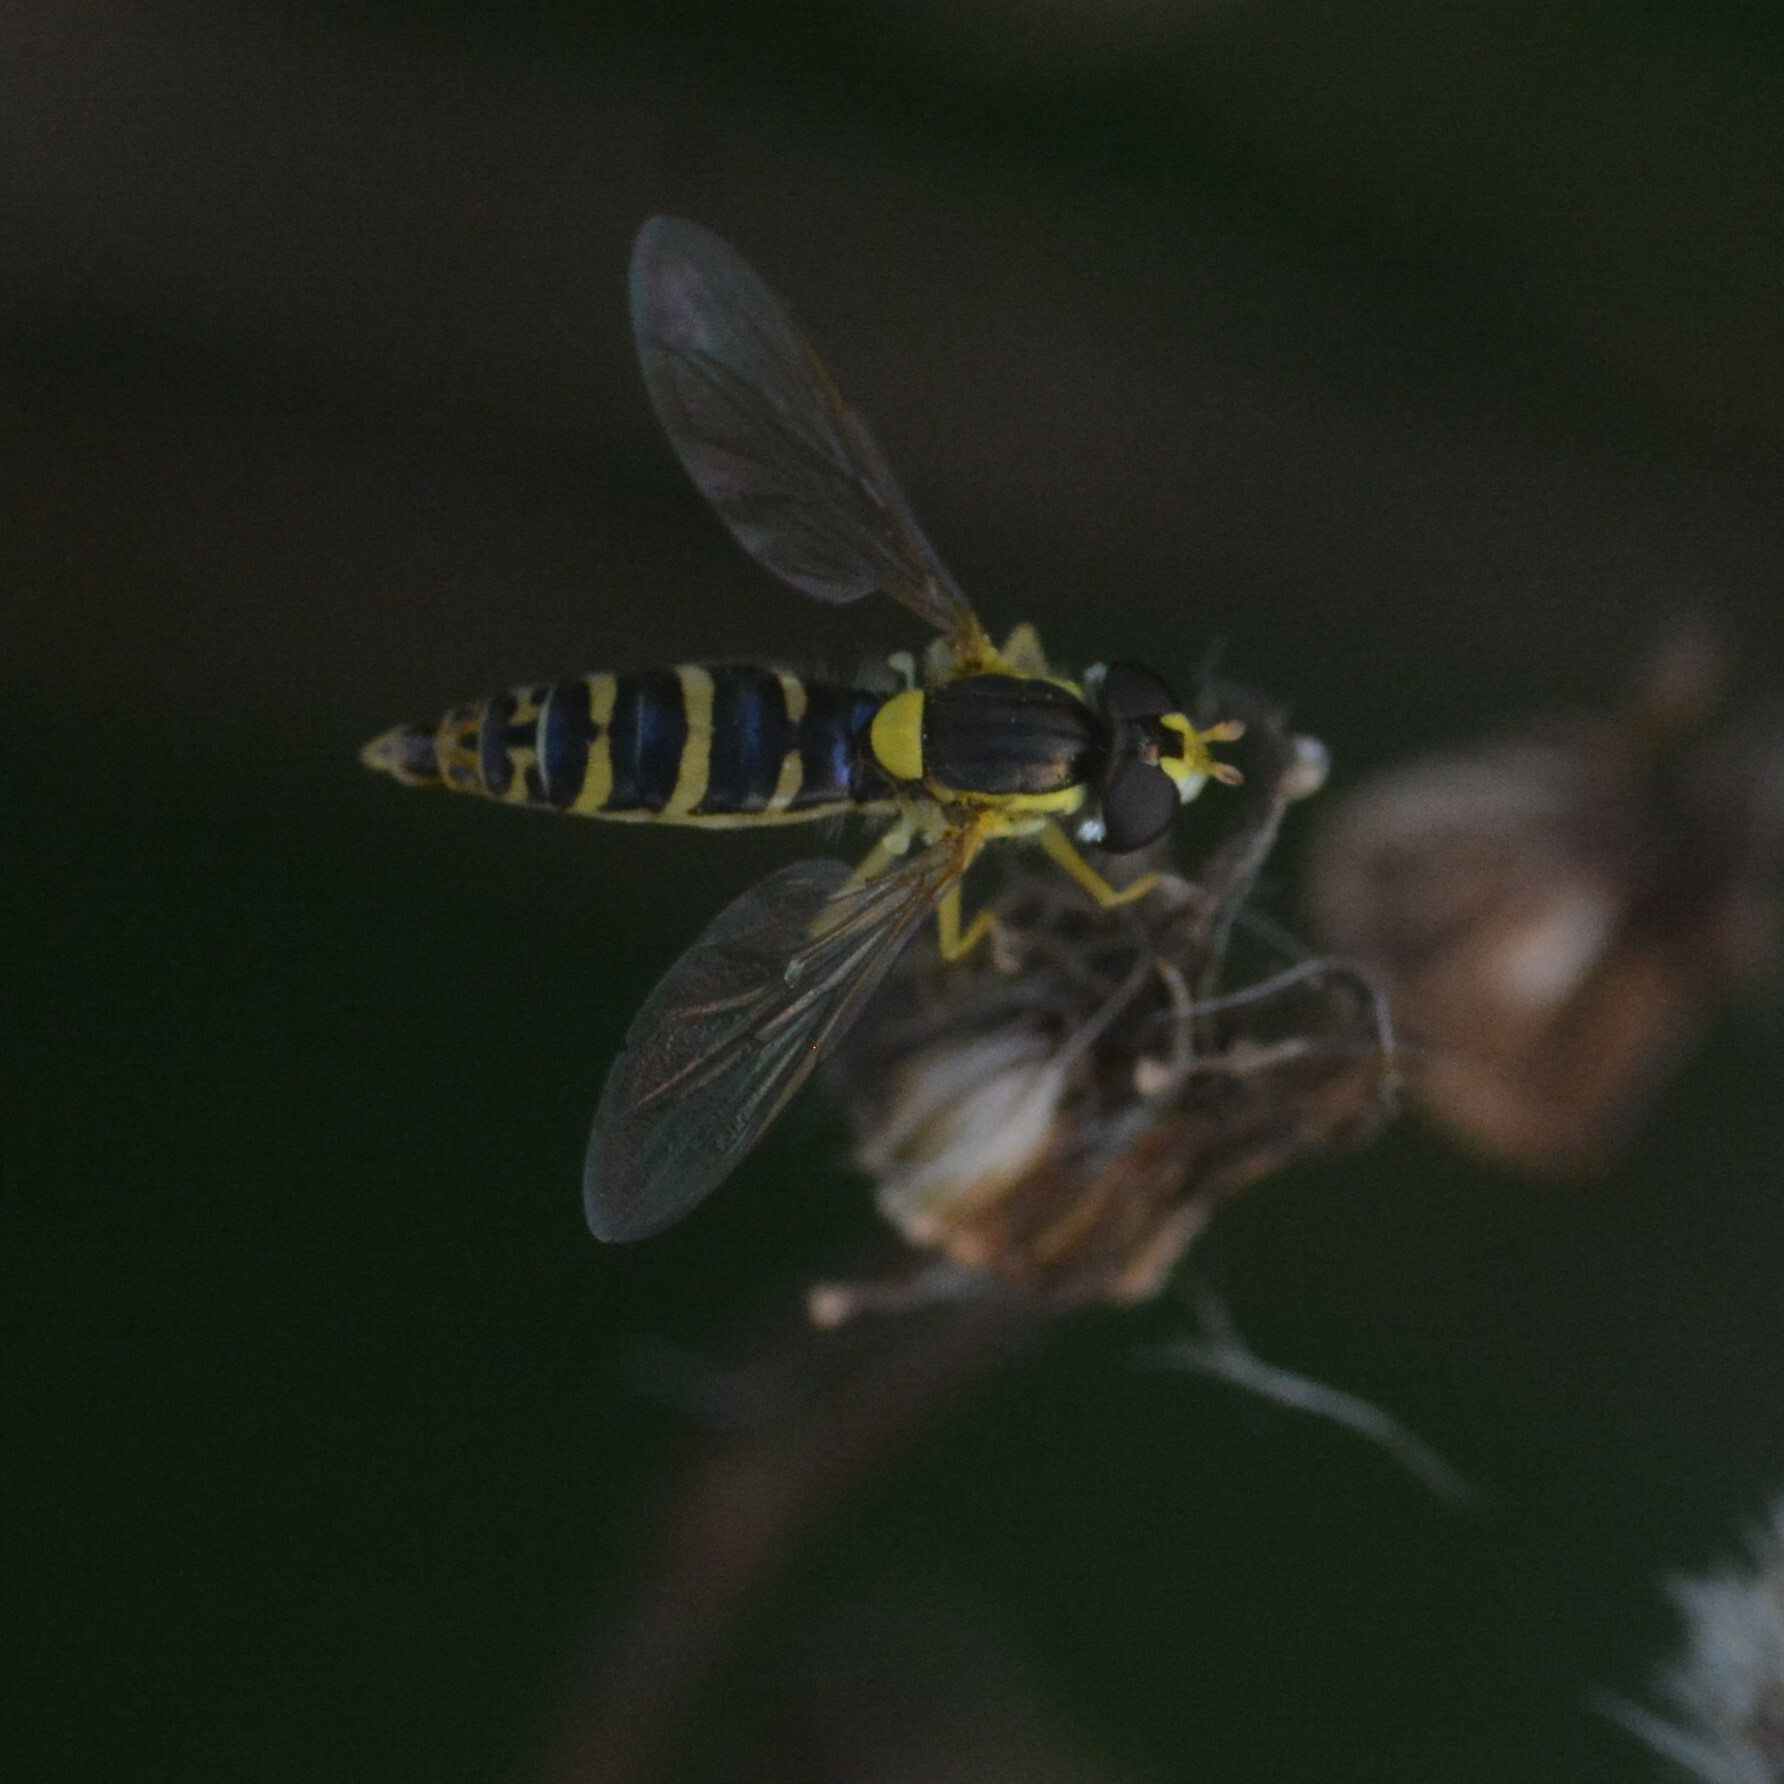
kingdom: Animalia
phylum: Arthropoda
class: Insecta
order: Diptera
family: Syrphidae
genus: Sphaerophoria
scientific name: Sphaerophoria
